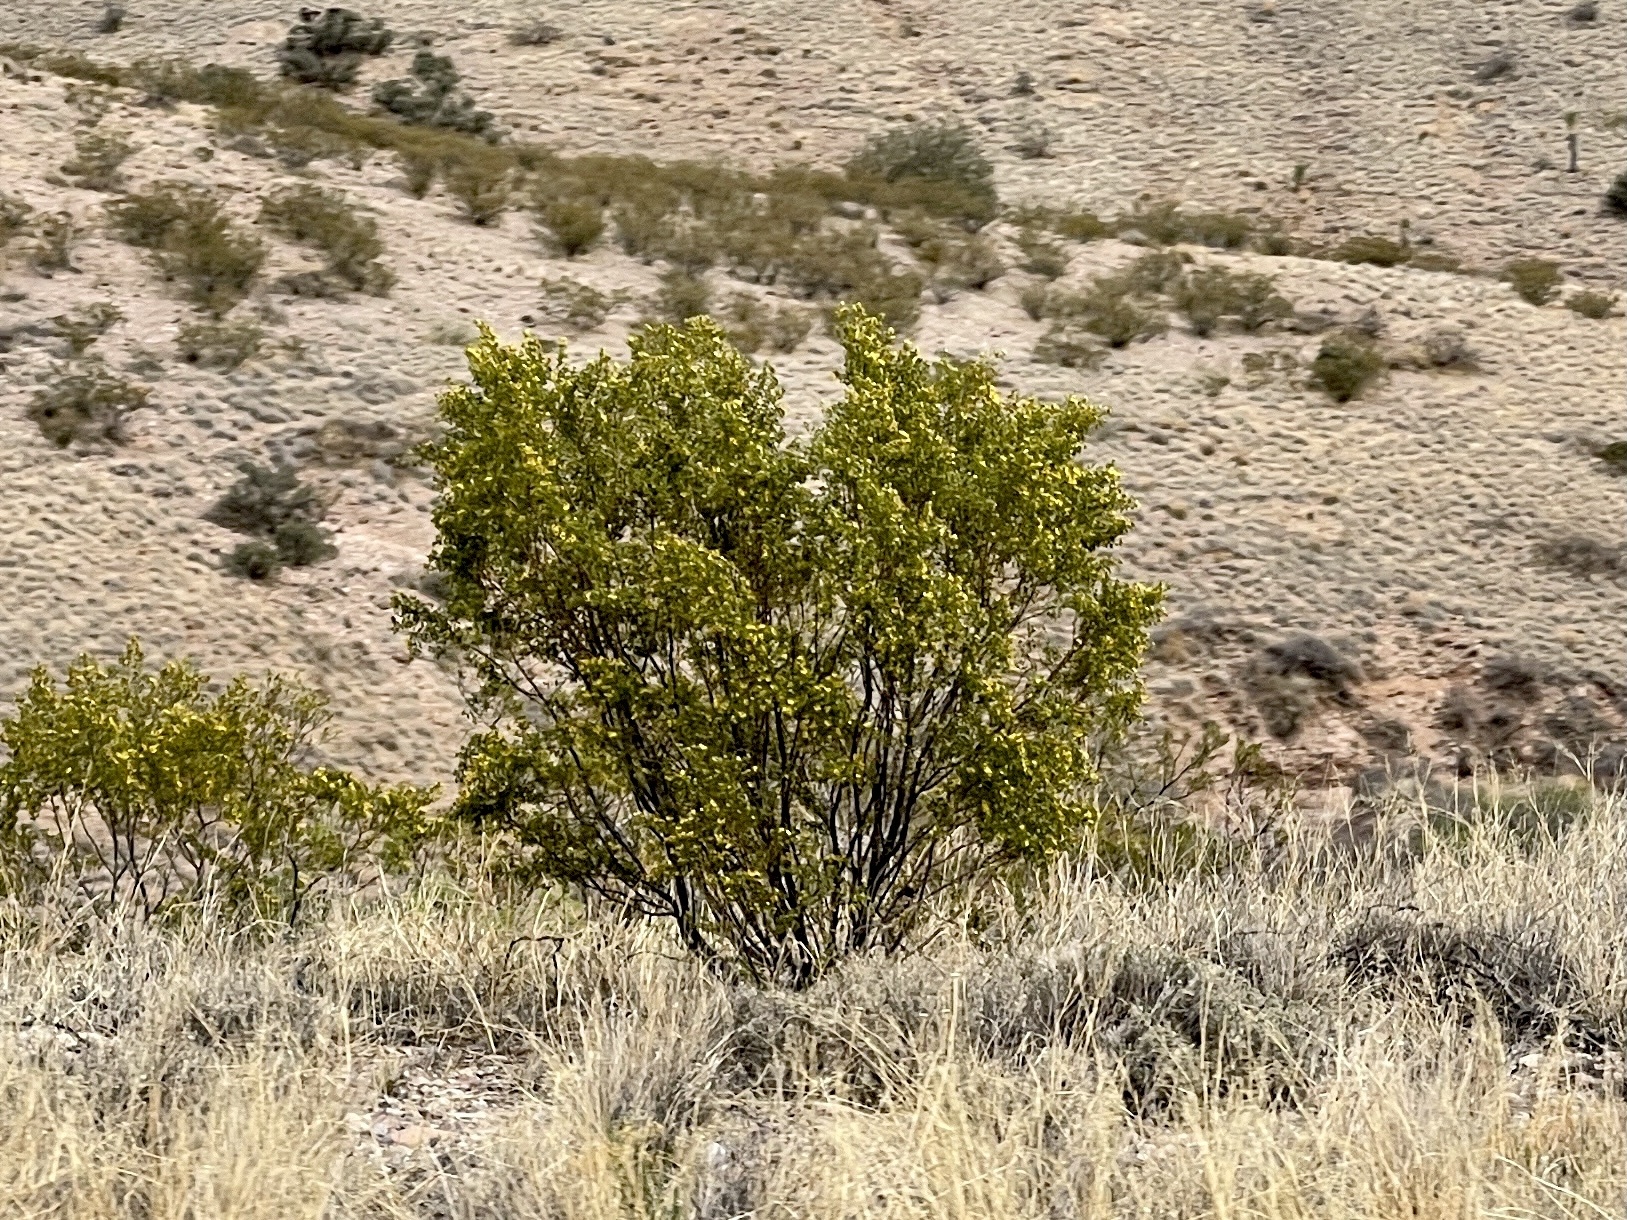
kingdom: Plantae
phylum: Tracheophyta
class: Magnoliopsida
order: Zygophyllales
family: Zygophyllaceae
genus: Larrea
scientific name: Larrea tridentata
